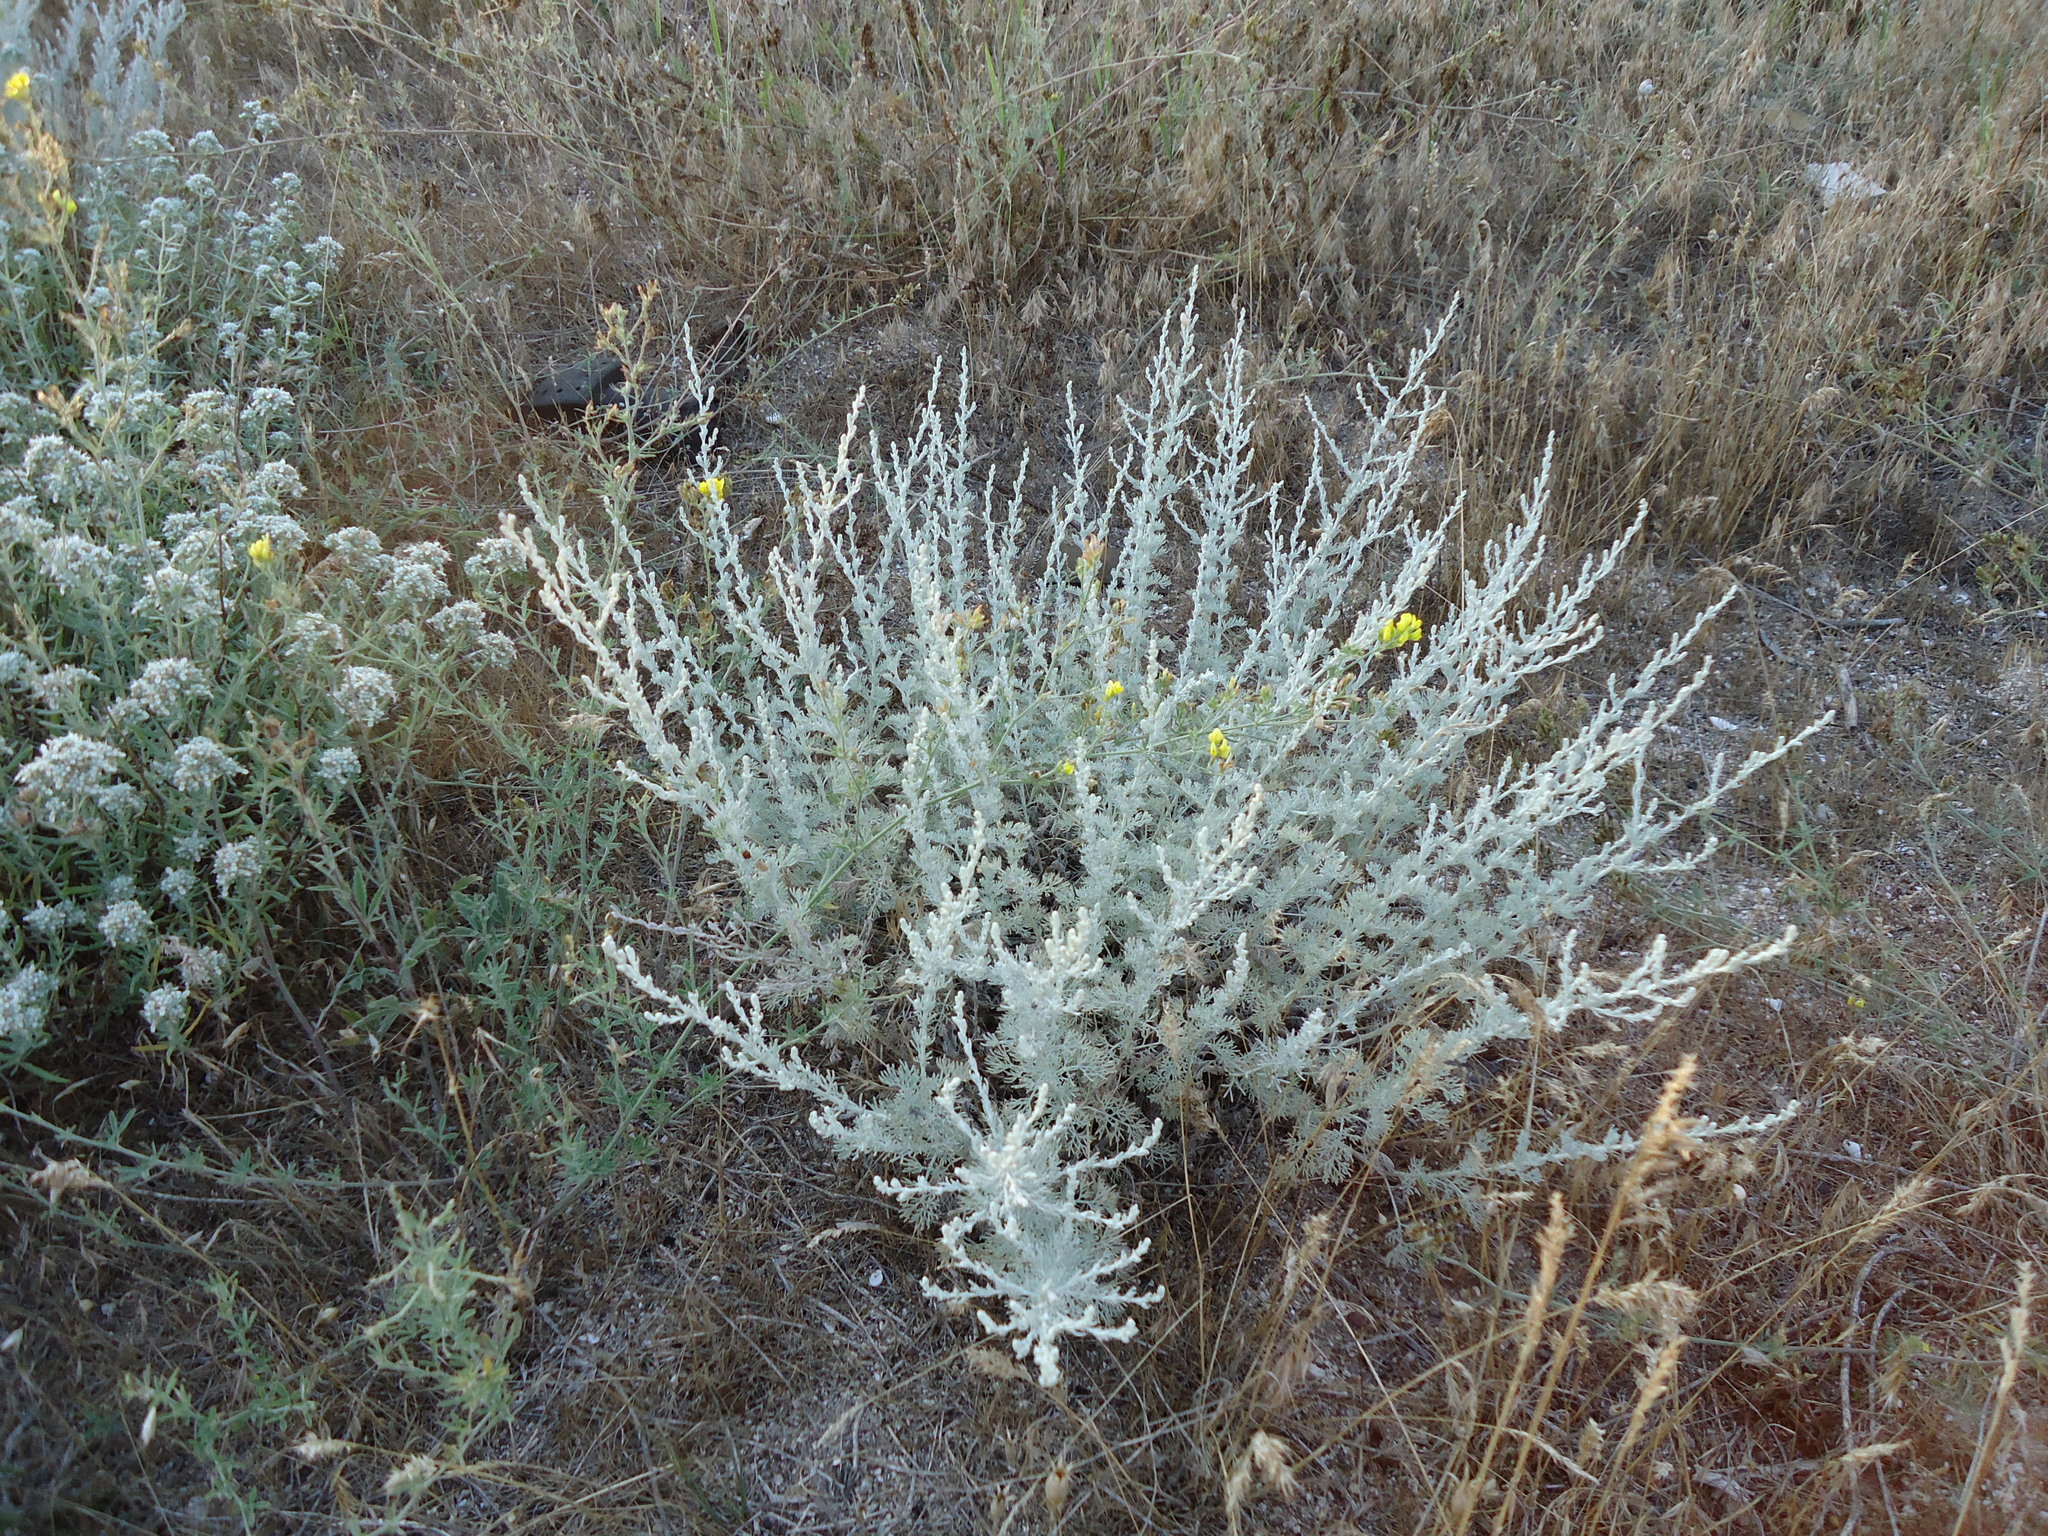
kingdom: Plantae
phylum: Tracheophyta
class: Magnoliopsida
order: Asterales
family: Asteraceae
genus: Artemisia
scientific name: Artemisia fragrans
